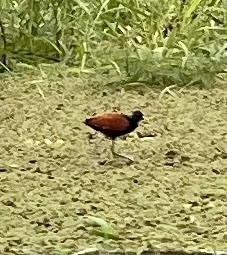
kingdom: Animalia
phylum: Chordata
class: Aves
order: Charadriiformes
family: Jacanidae
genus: Jacana
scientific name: Jacana spinosa
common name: Northern jacana
